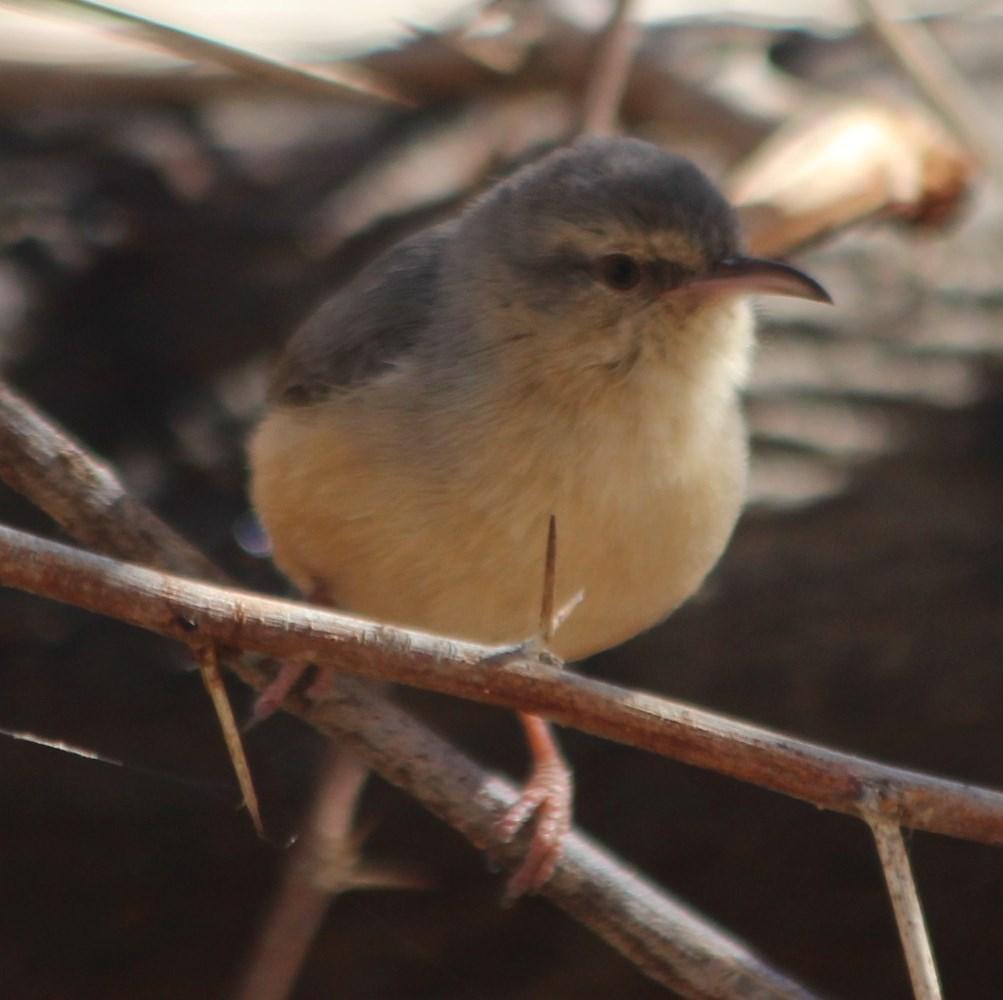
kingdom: Animalia
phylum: Chordata
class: Aves
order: Passeriformes
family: Macrosphenidae
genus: Sylvietta
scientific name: Sylvietta rufescens
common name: Long-billed crombec
